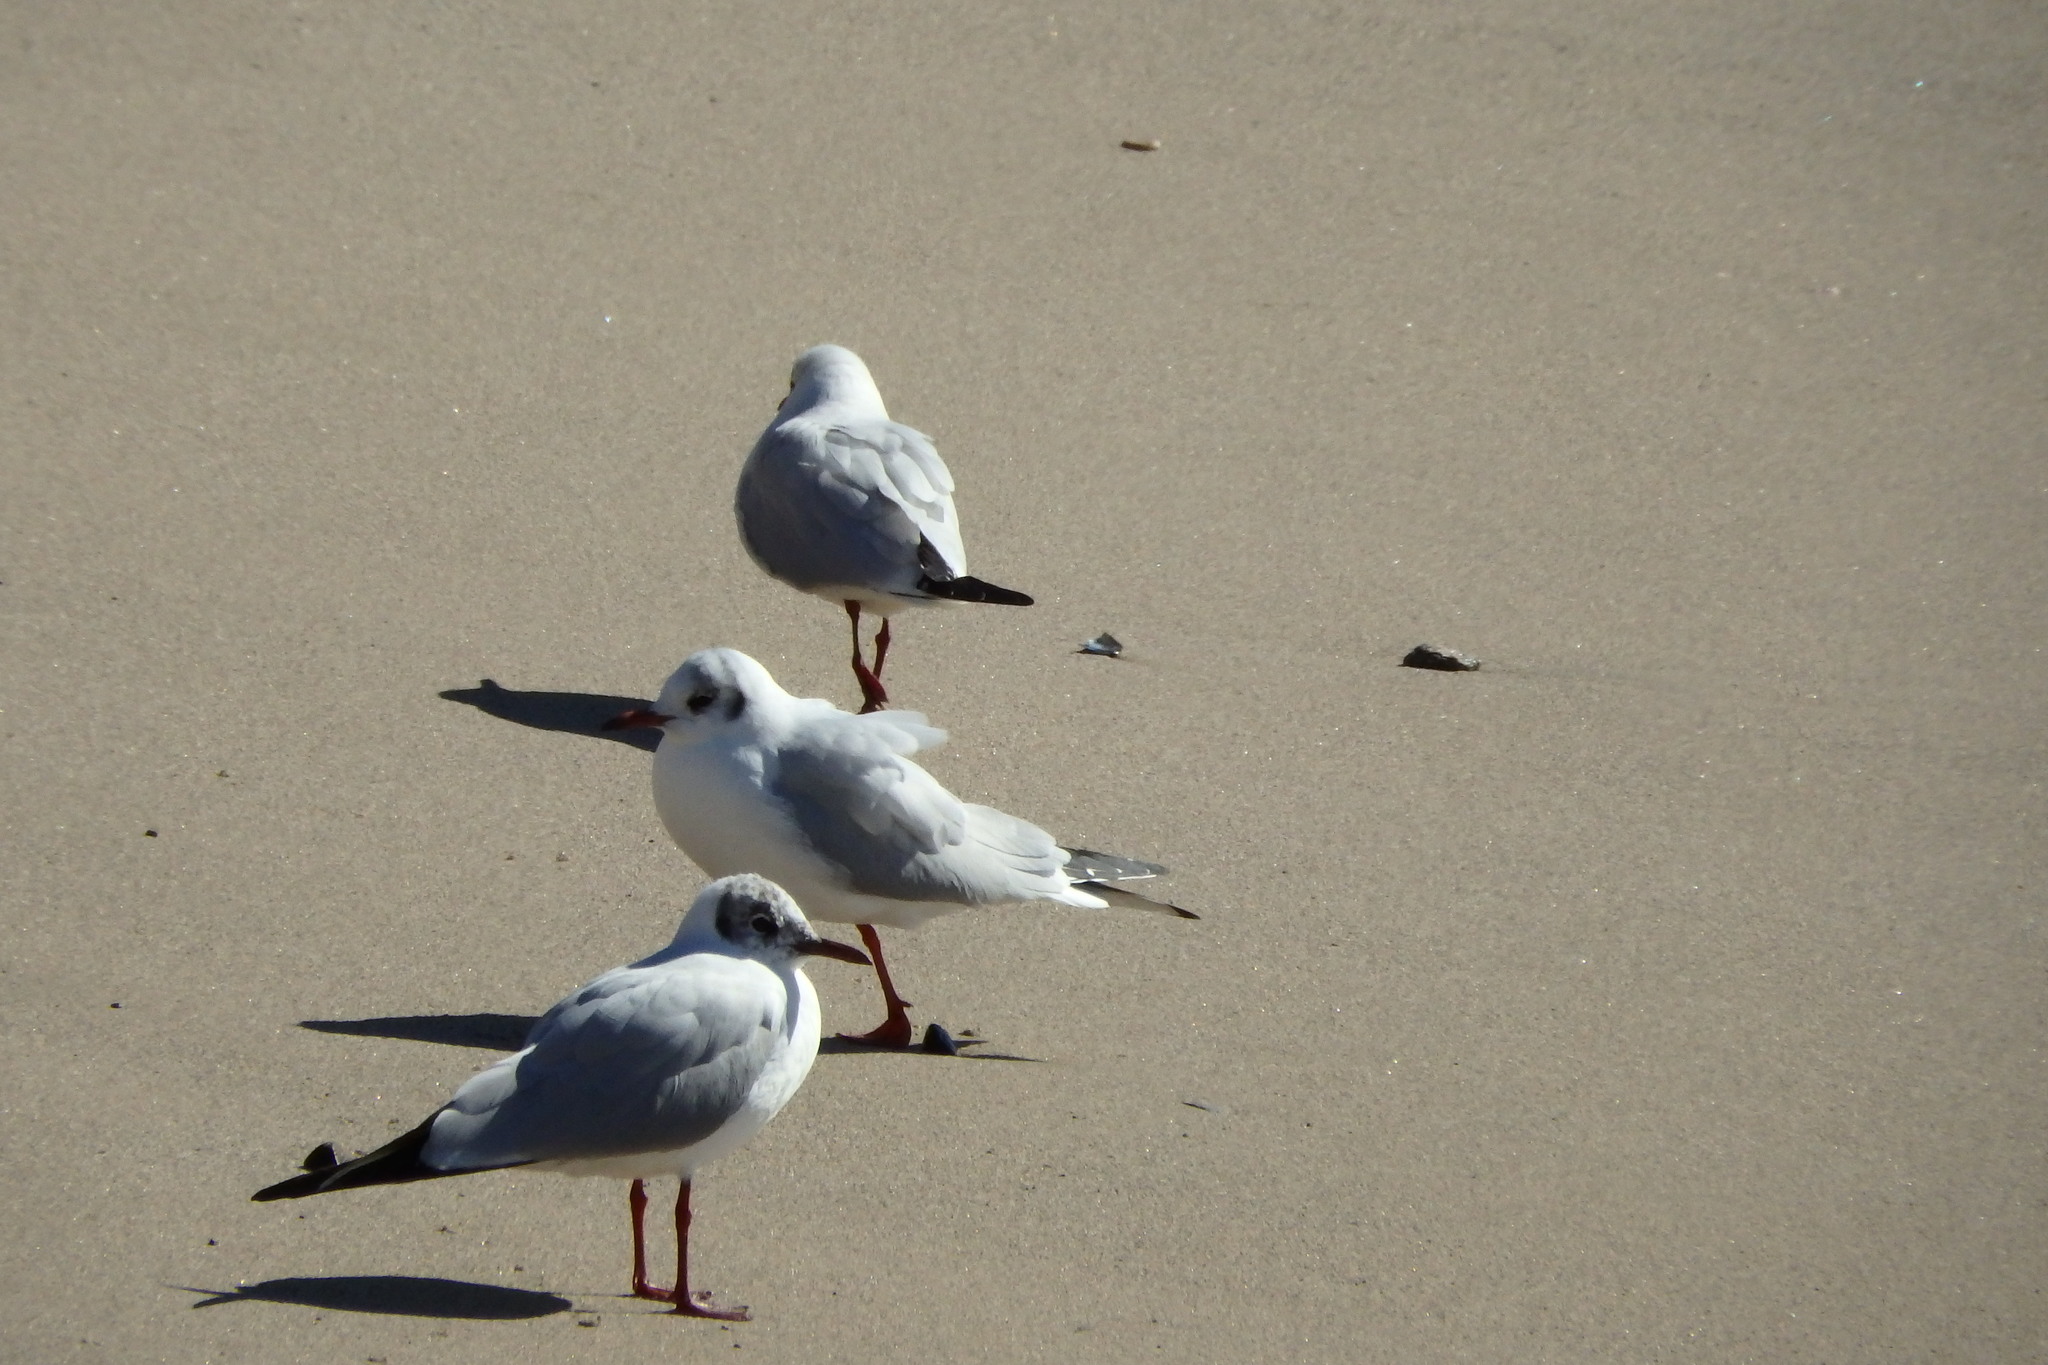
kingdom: Animalia
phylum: Chordata
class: Aves
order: Charadriiformes
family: Laridae
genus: Chroicocephalus
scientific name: Chroicocephalus ridibundus
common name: Black-headed gull
